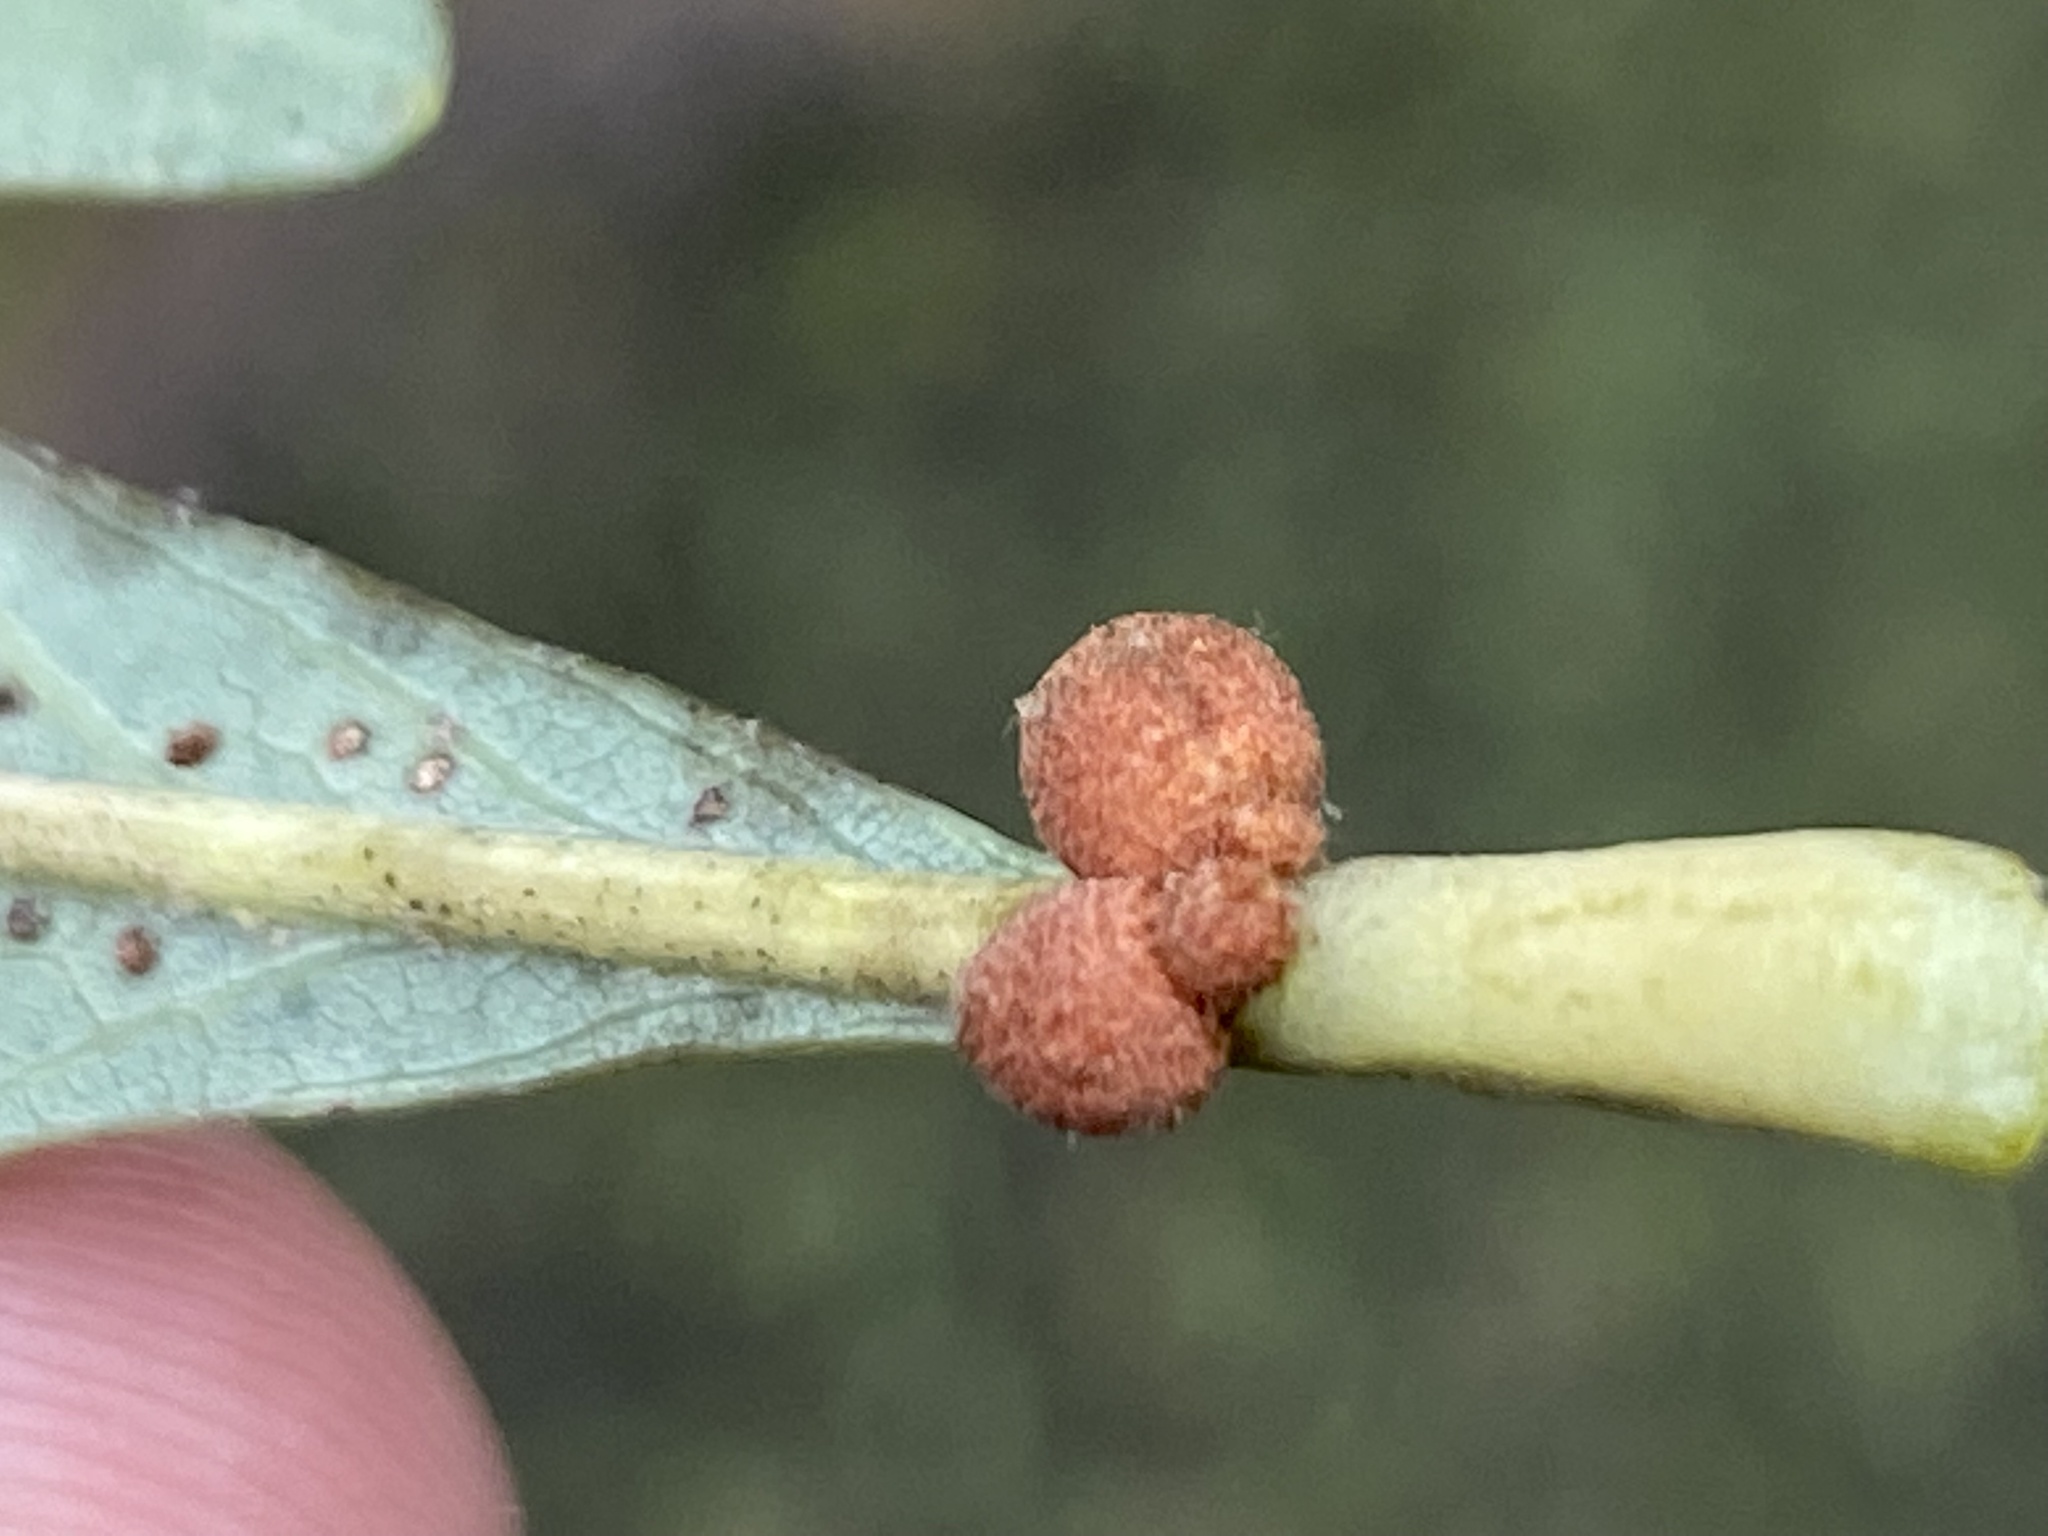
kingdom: Animalia
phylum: Arthropoda
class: Insecta
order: Hymenoptera
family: Cynipidae
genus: Andricus
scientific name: Andricus
